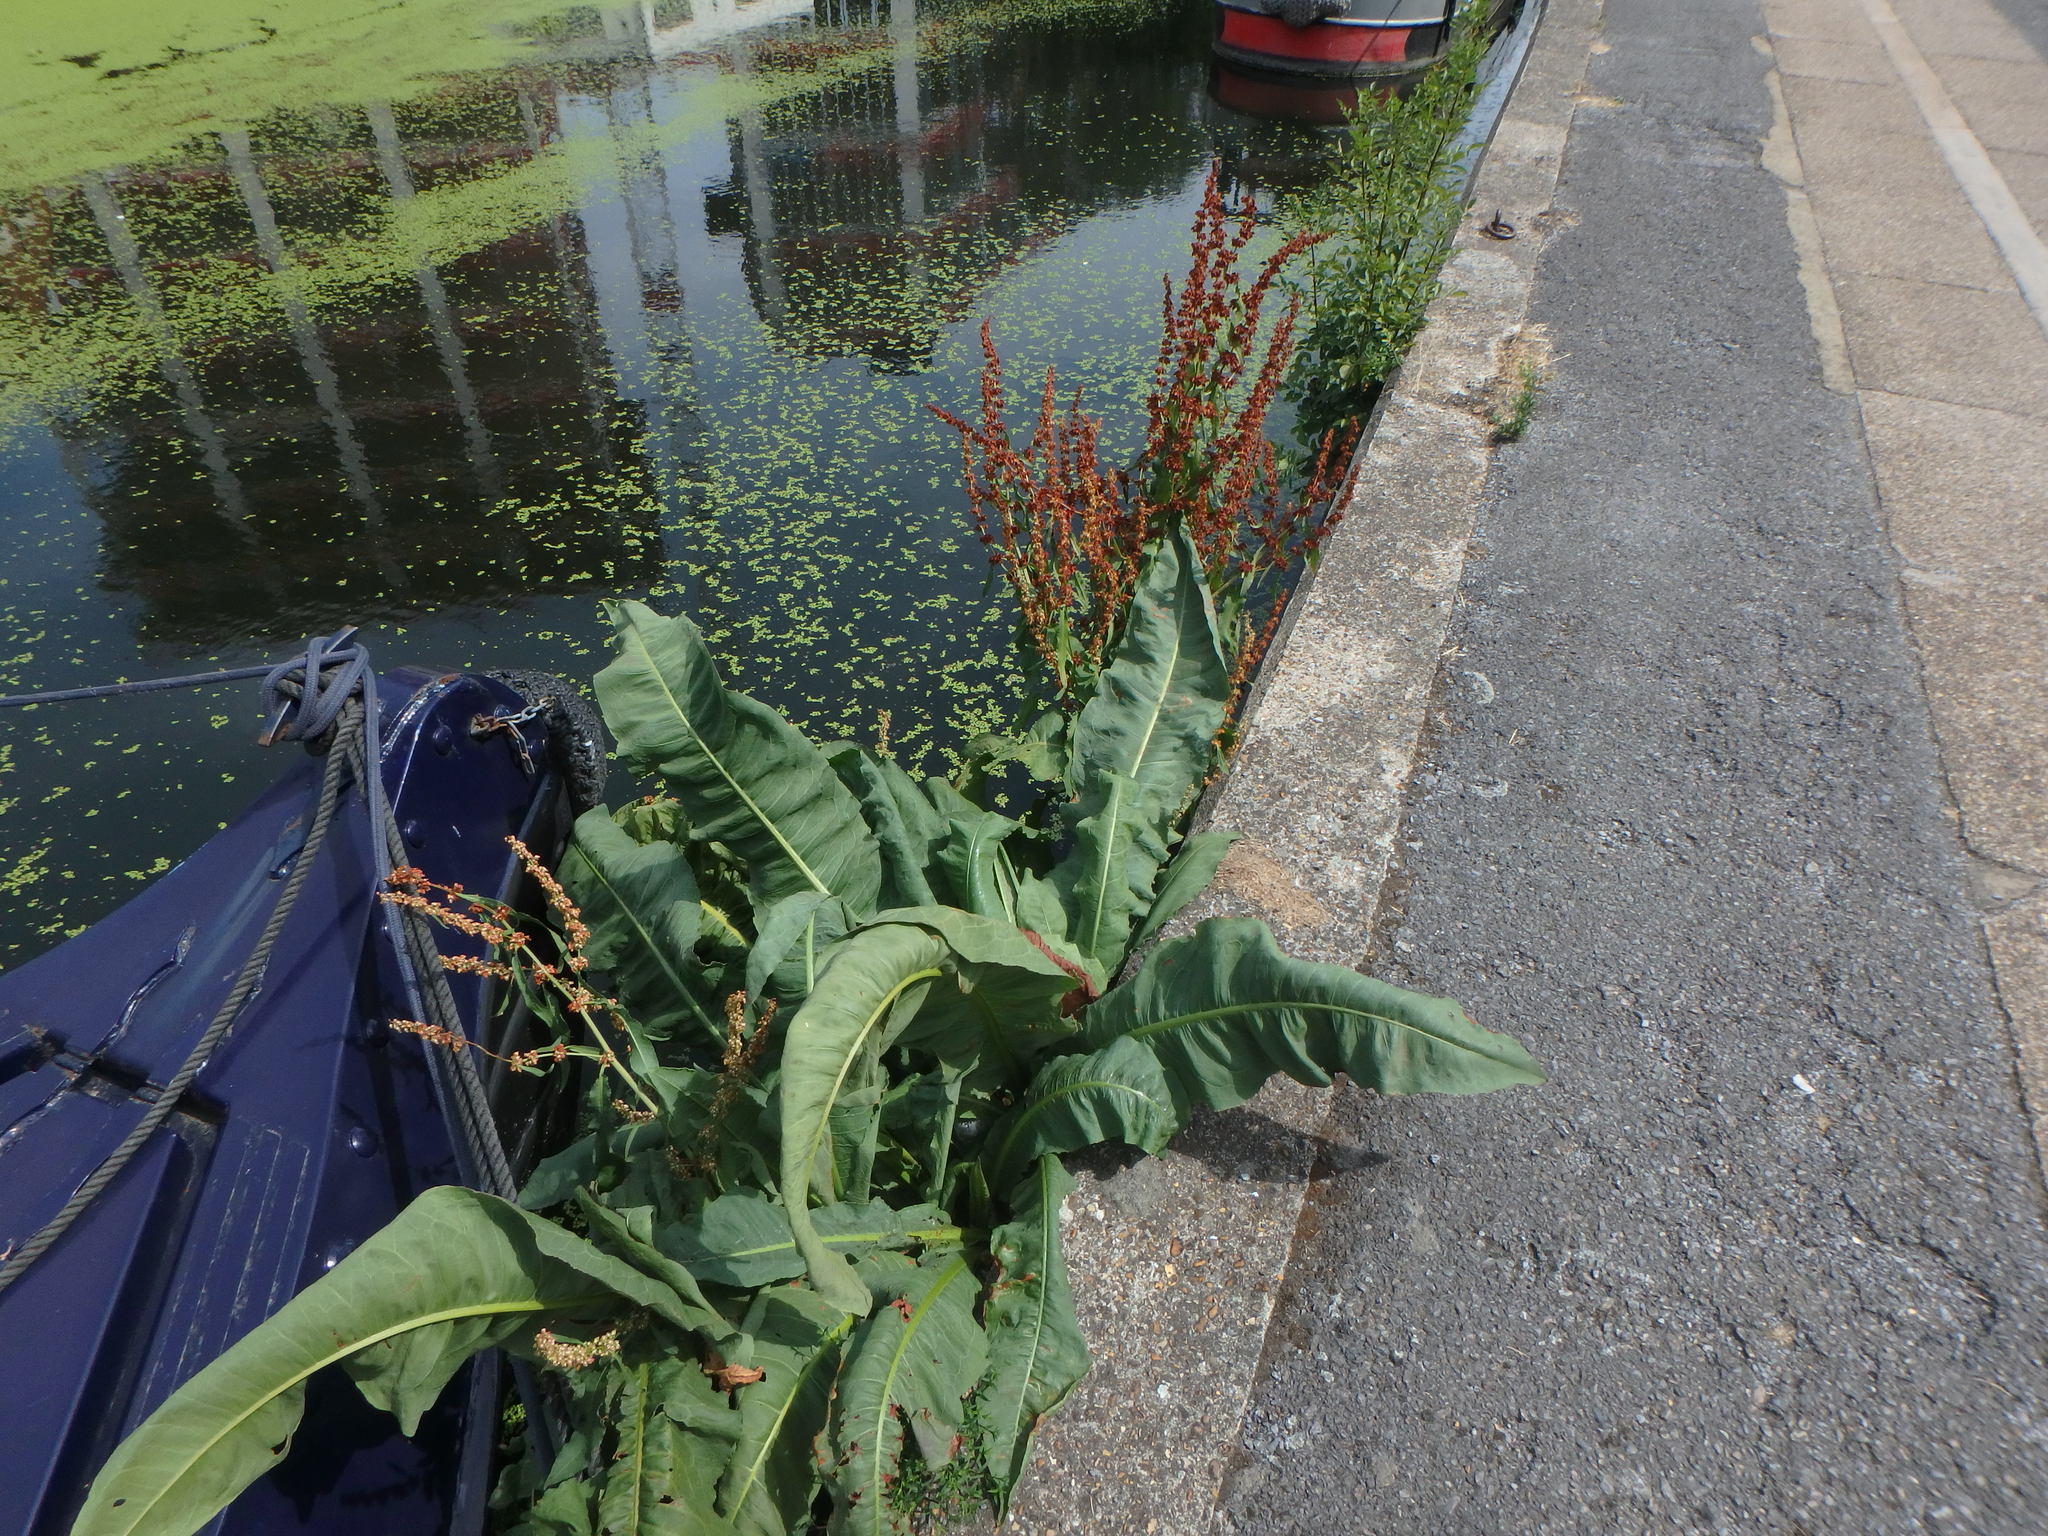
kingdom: Plantae
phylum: Tracheophyta
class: Magnoliopsida
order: Caryophyllales
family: Polygonaceae
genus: Rumex
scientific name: Rumex hydrolapathum
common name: Water dock
